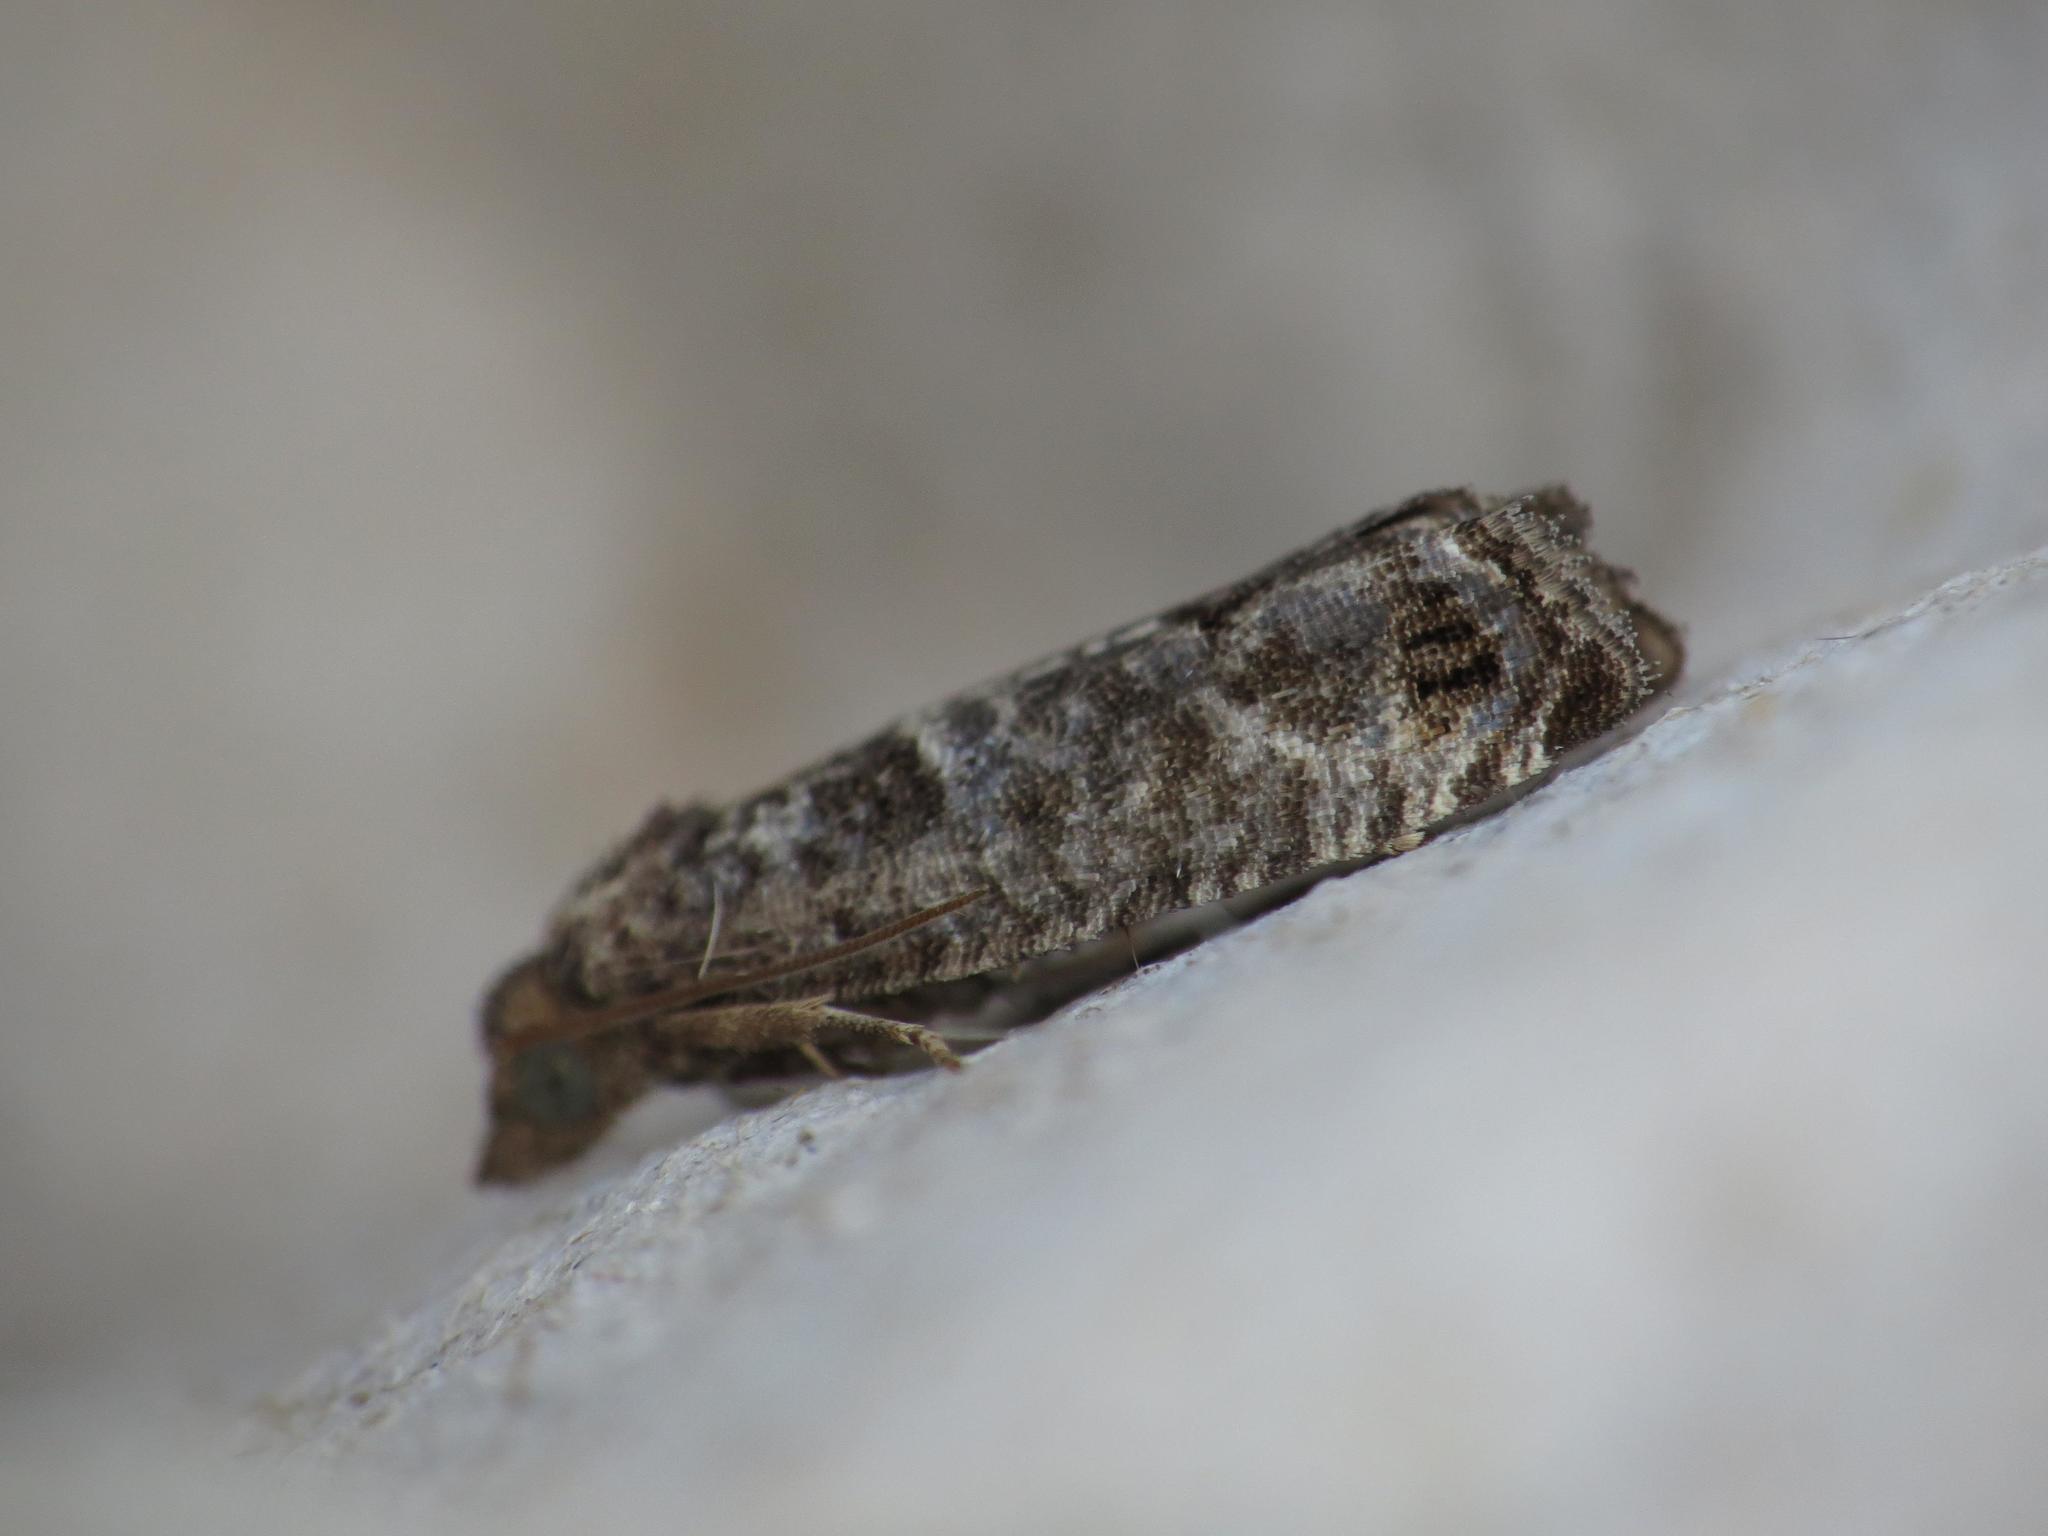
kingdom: Animalia
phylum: Arthropoda
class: Insecta
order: Lepidoptera
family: Tortricidae
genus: Spilonota
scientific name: Spilonota ocellana
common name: Bud moth
